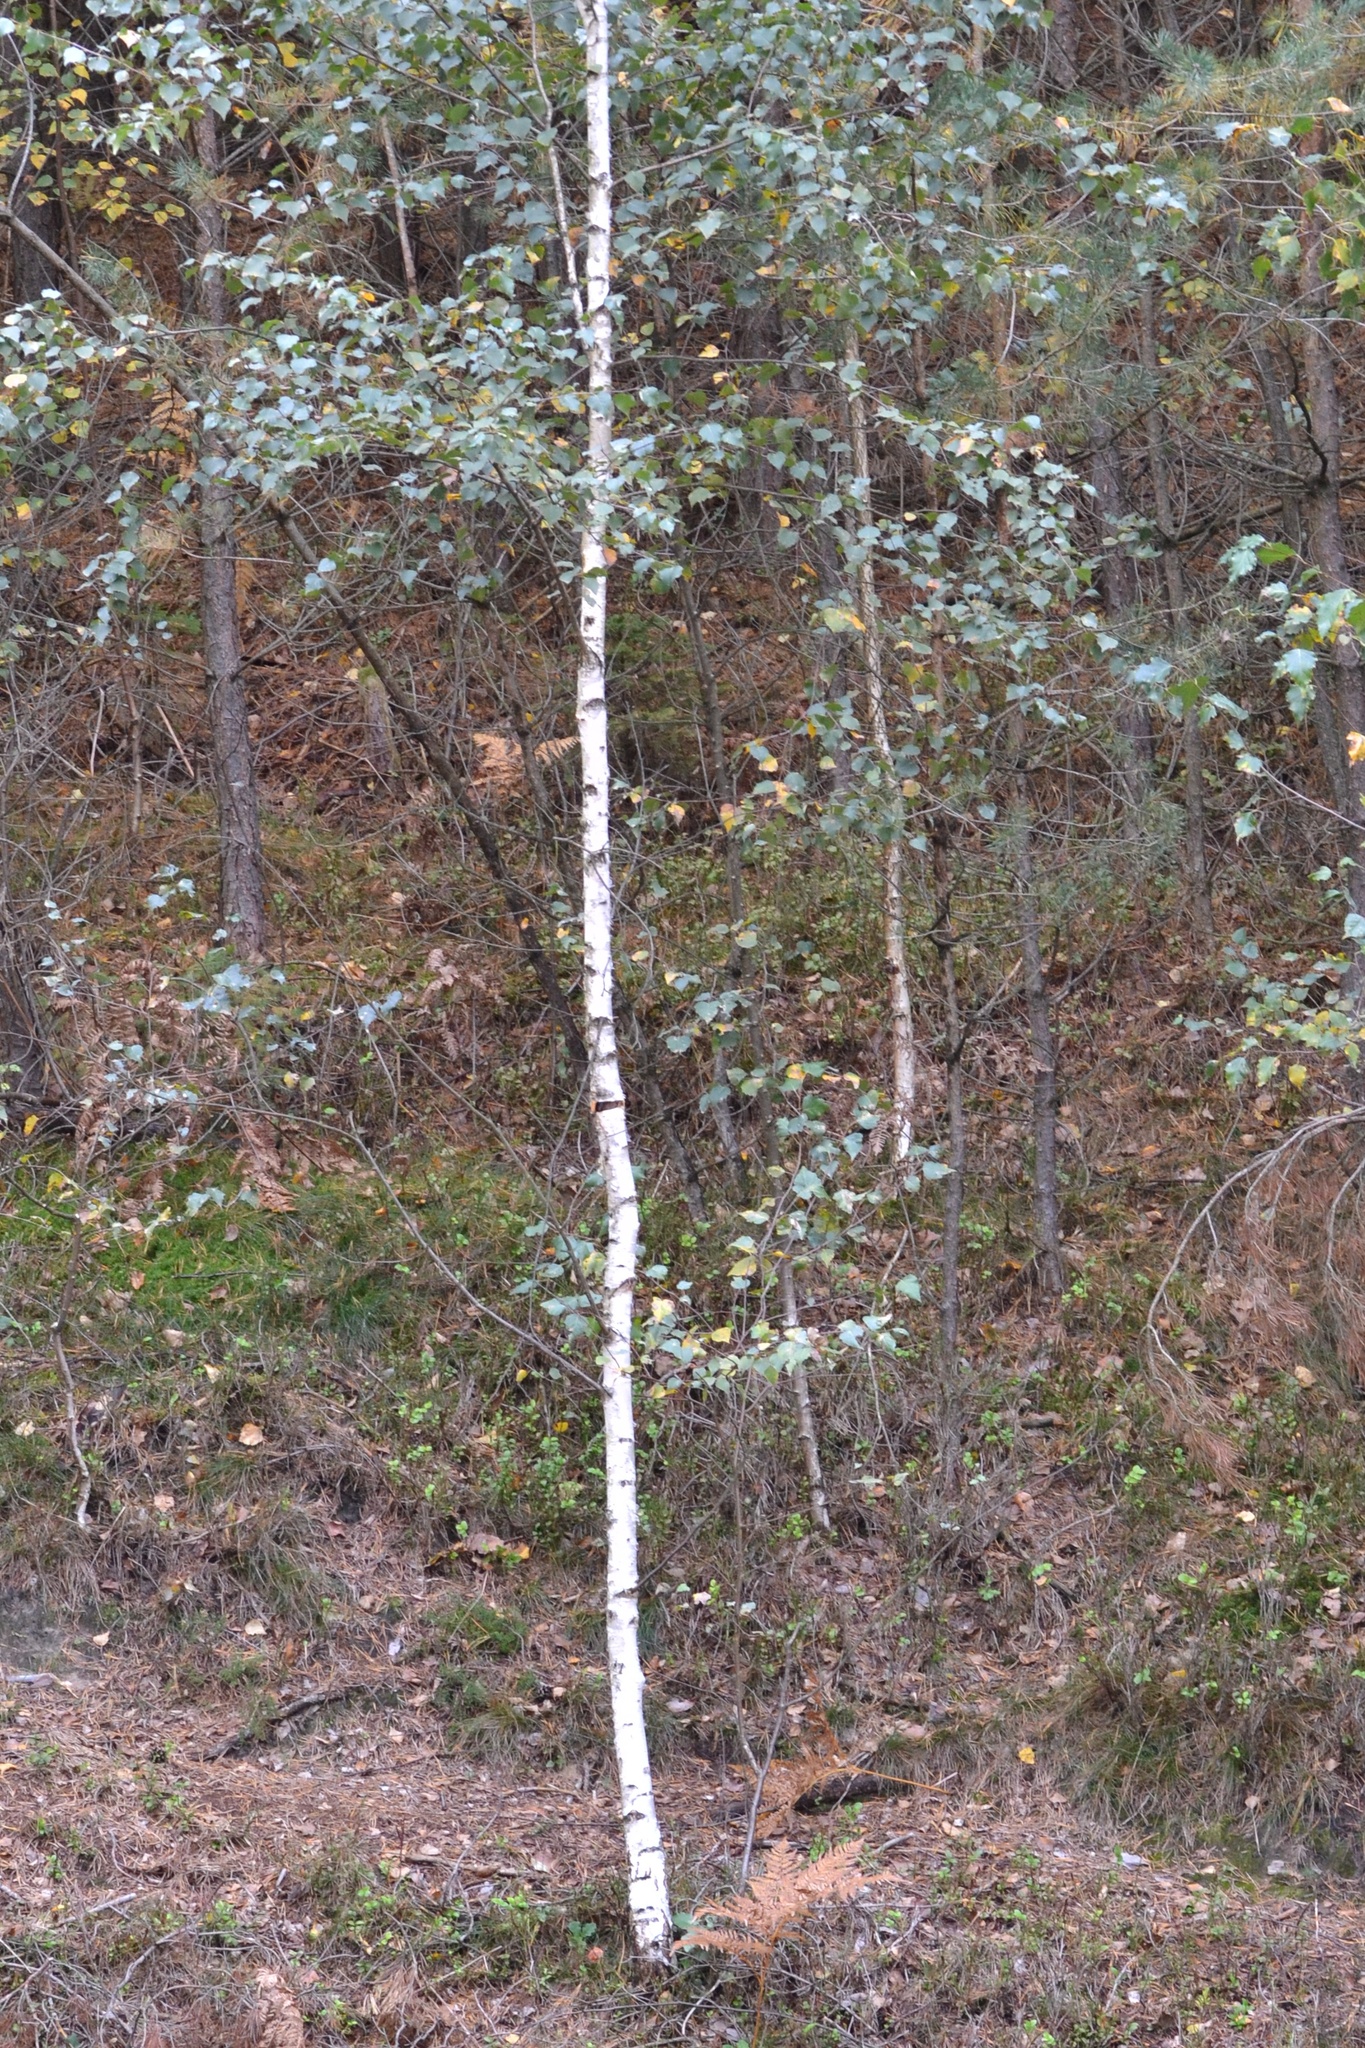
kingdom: Plantae
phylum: Tracheophyta
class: Magnoliopsida
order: Fagales
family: Betulaceae
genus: Betula
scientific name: Betula pendula
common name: Silver birch
